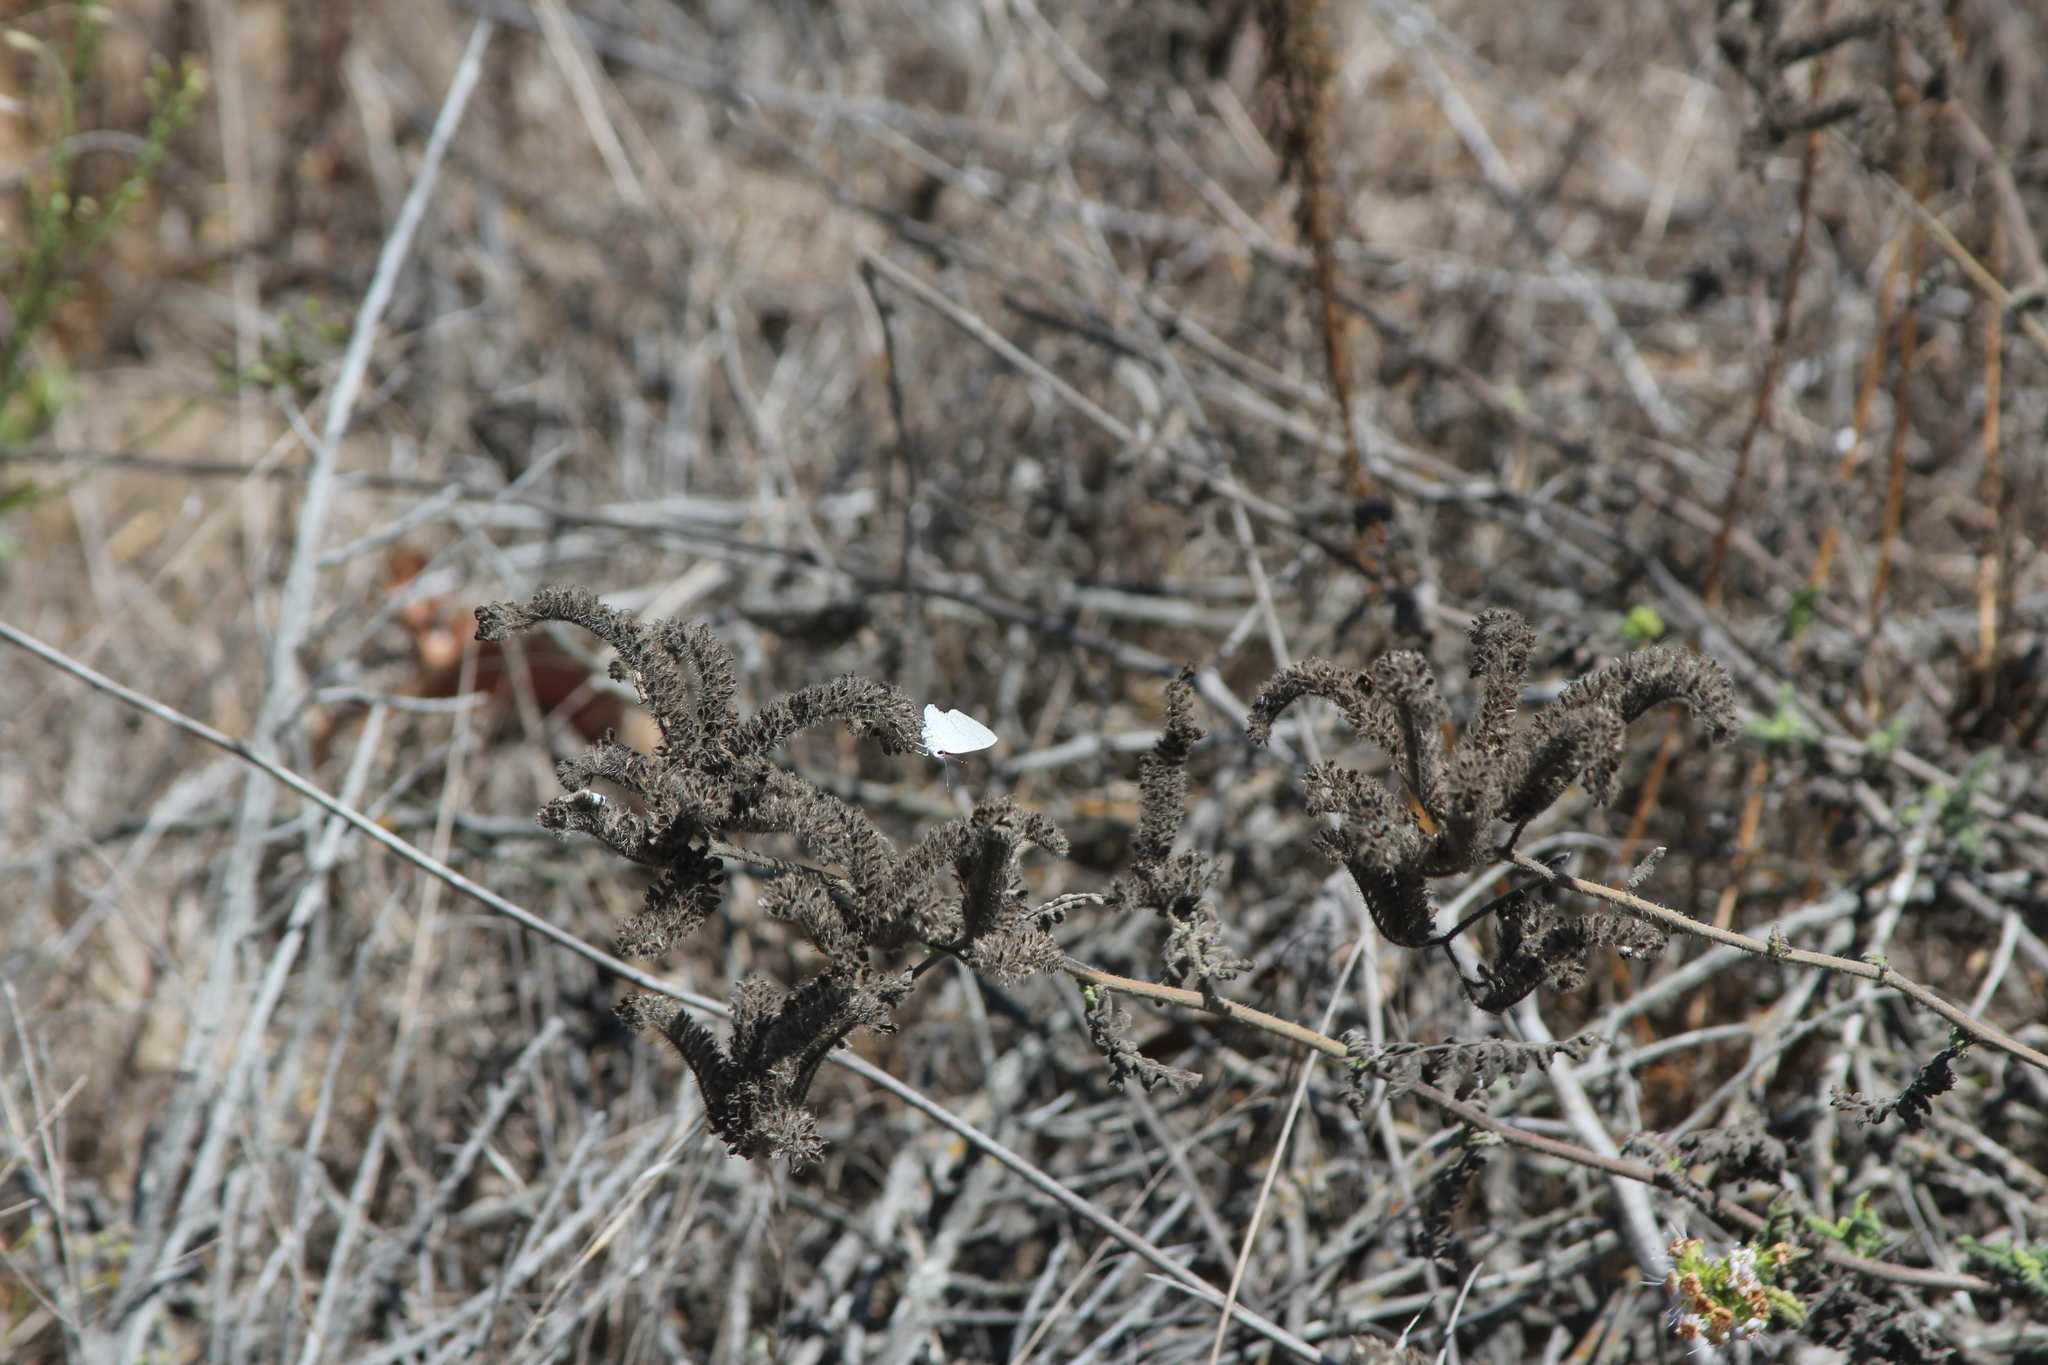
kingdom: Animalia
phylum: Arthropoda
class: Insecta
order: Lepidoptera
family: Lycaenidae
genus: Strymon
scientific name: Strymon melinus
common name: Gray hairstreak
